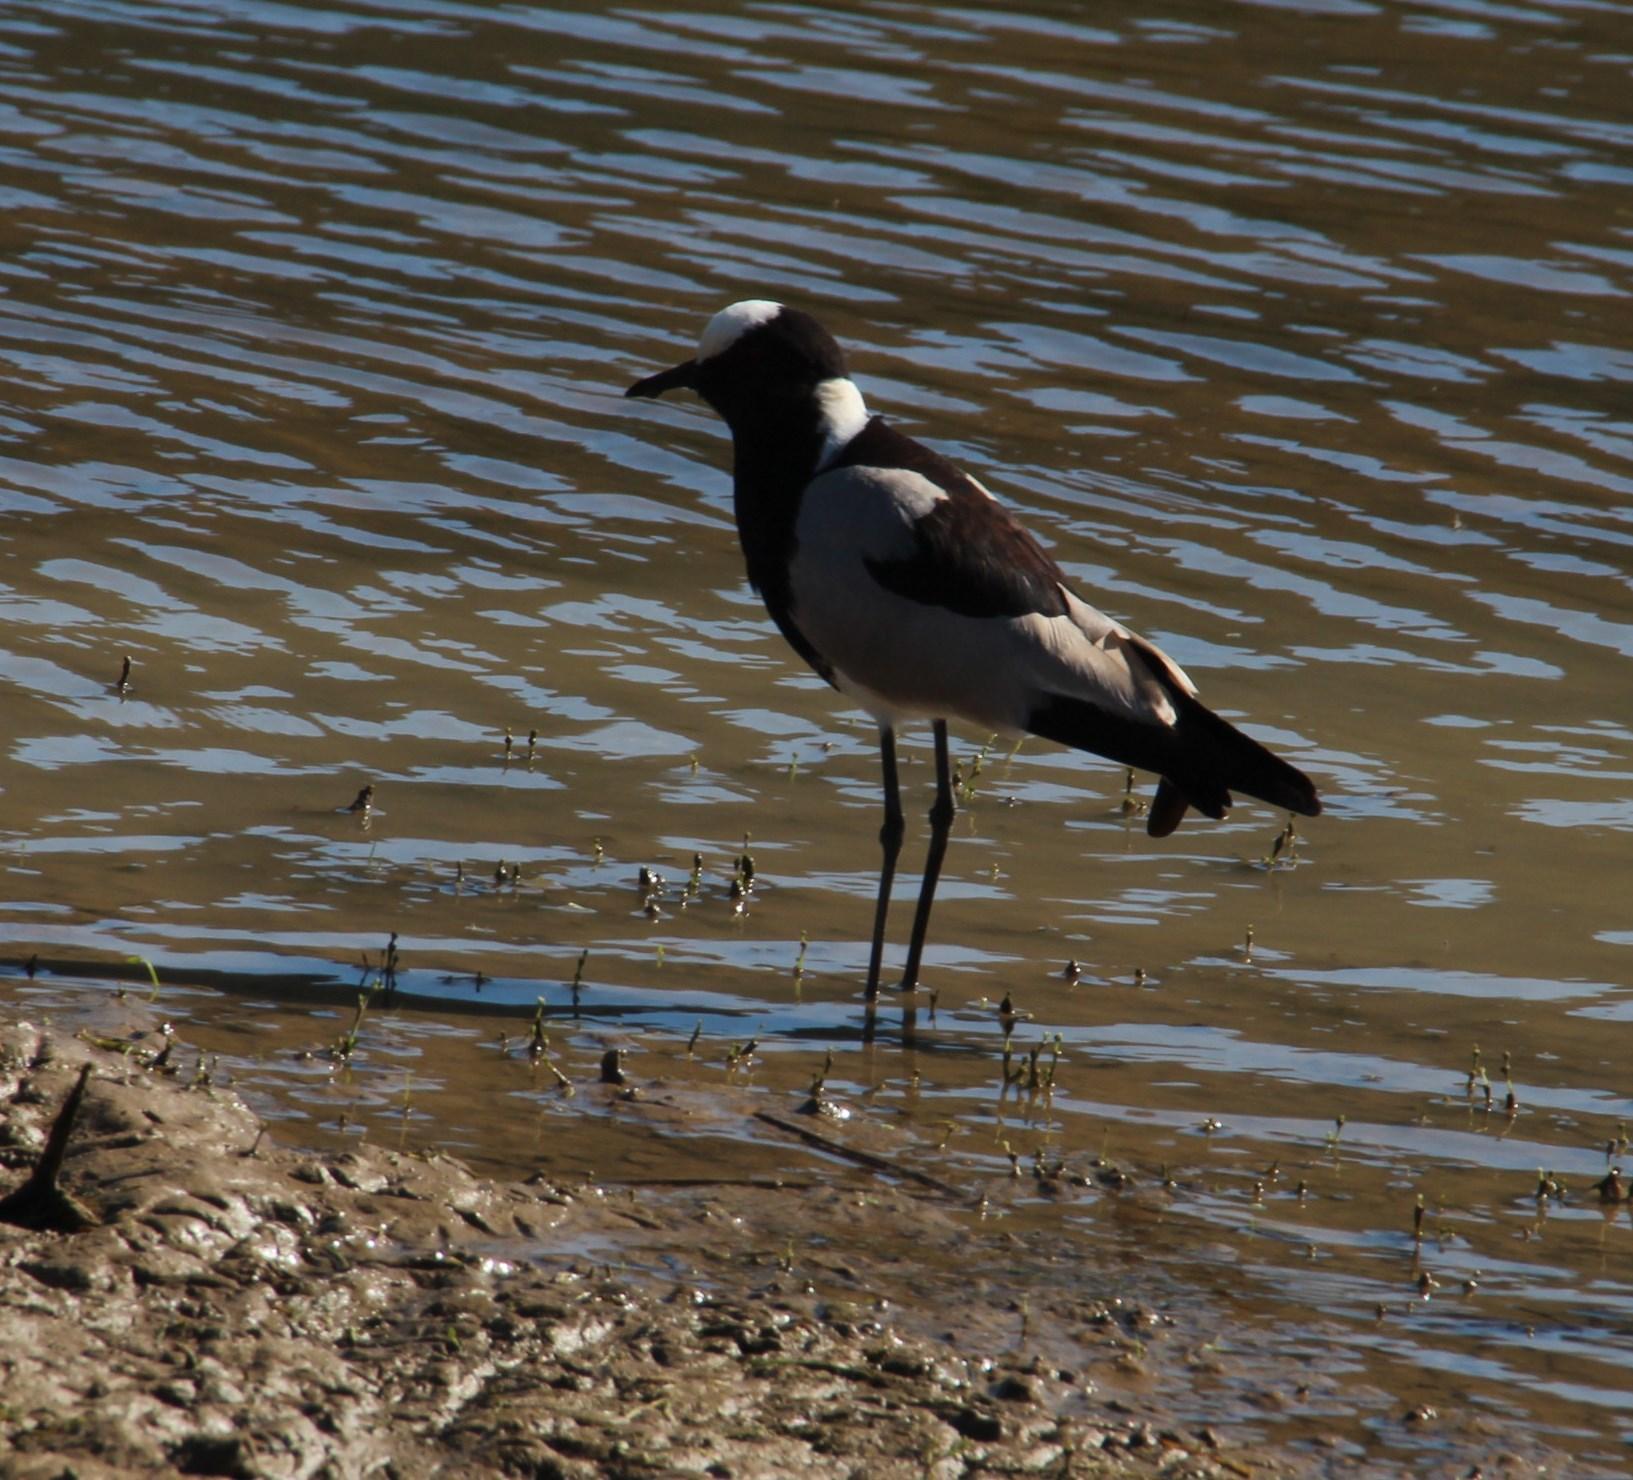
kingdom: Animalia
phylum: Chordata
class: Aves
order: Charadriiformes
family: Charadriidae
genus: Vanellus
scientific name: Vanellus armatus
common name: Blacksmith lapwing
